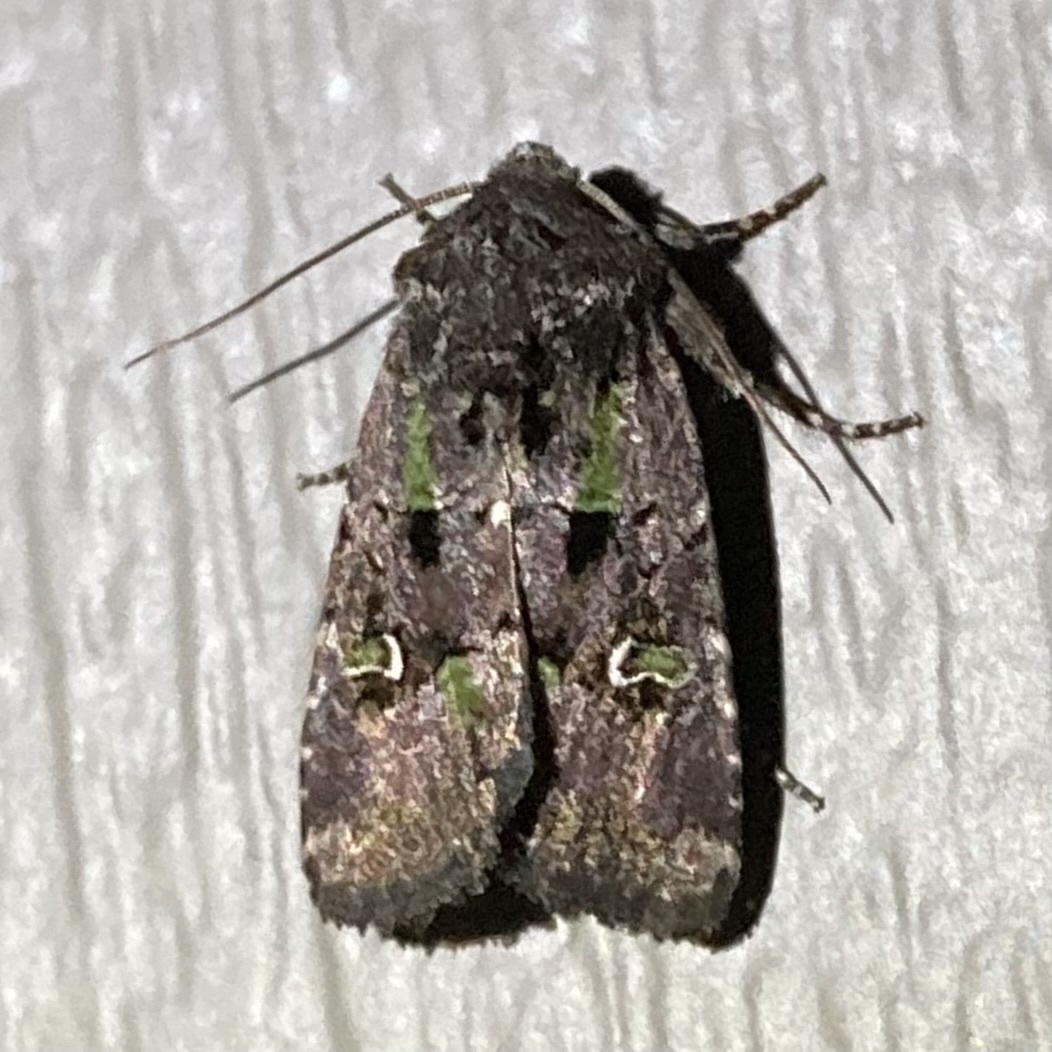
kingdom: Animalia
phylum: Arthropoda
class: Insecta
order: Lepidoptera
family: Noctuidae
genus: Lacinipolia
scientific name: Lacinipolia renigera
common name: Kidney-spotted minor
